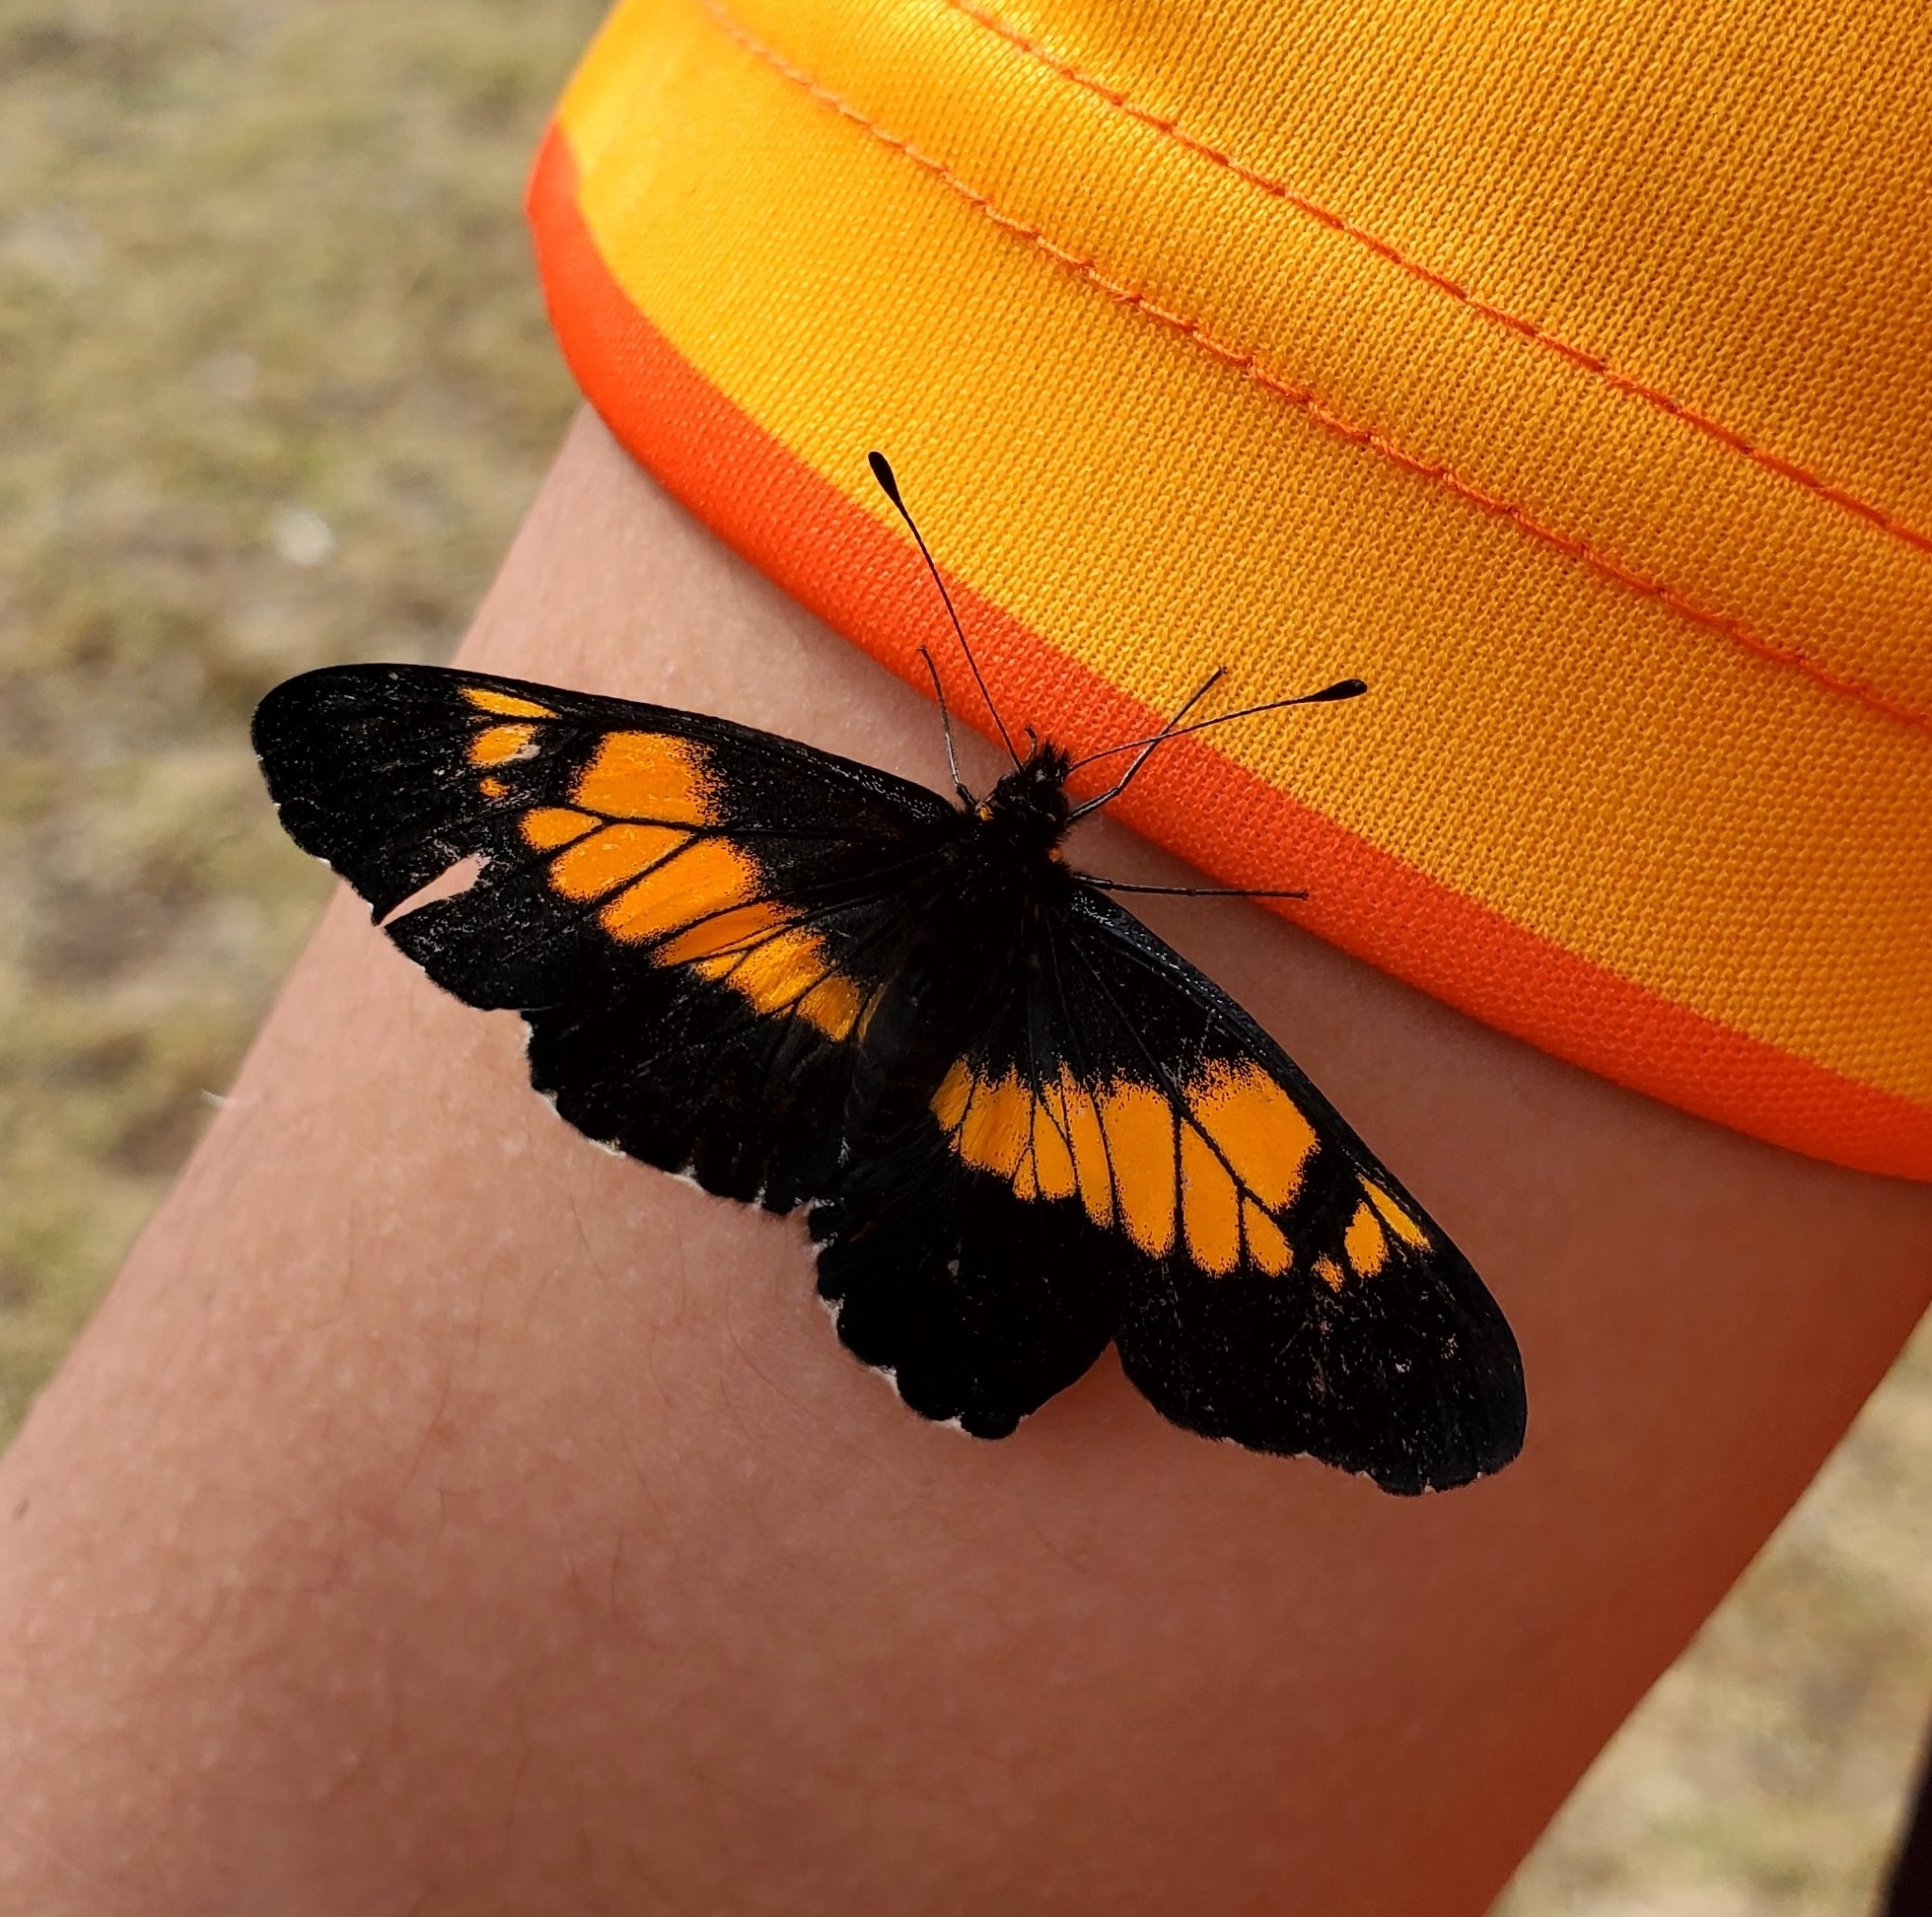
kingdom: Animalia
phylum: Arthropoda
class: Insecta
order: Lepidoptera
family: Pieridae
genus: Archonias
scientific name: Archonias teutila
